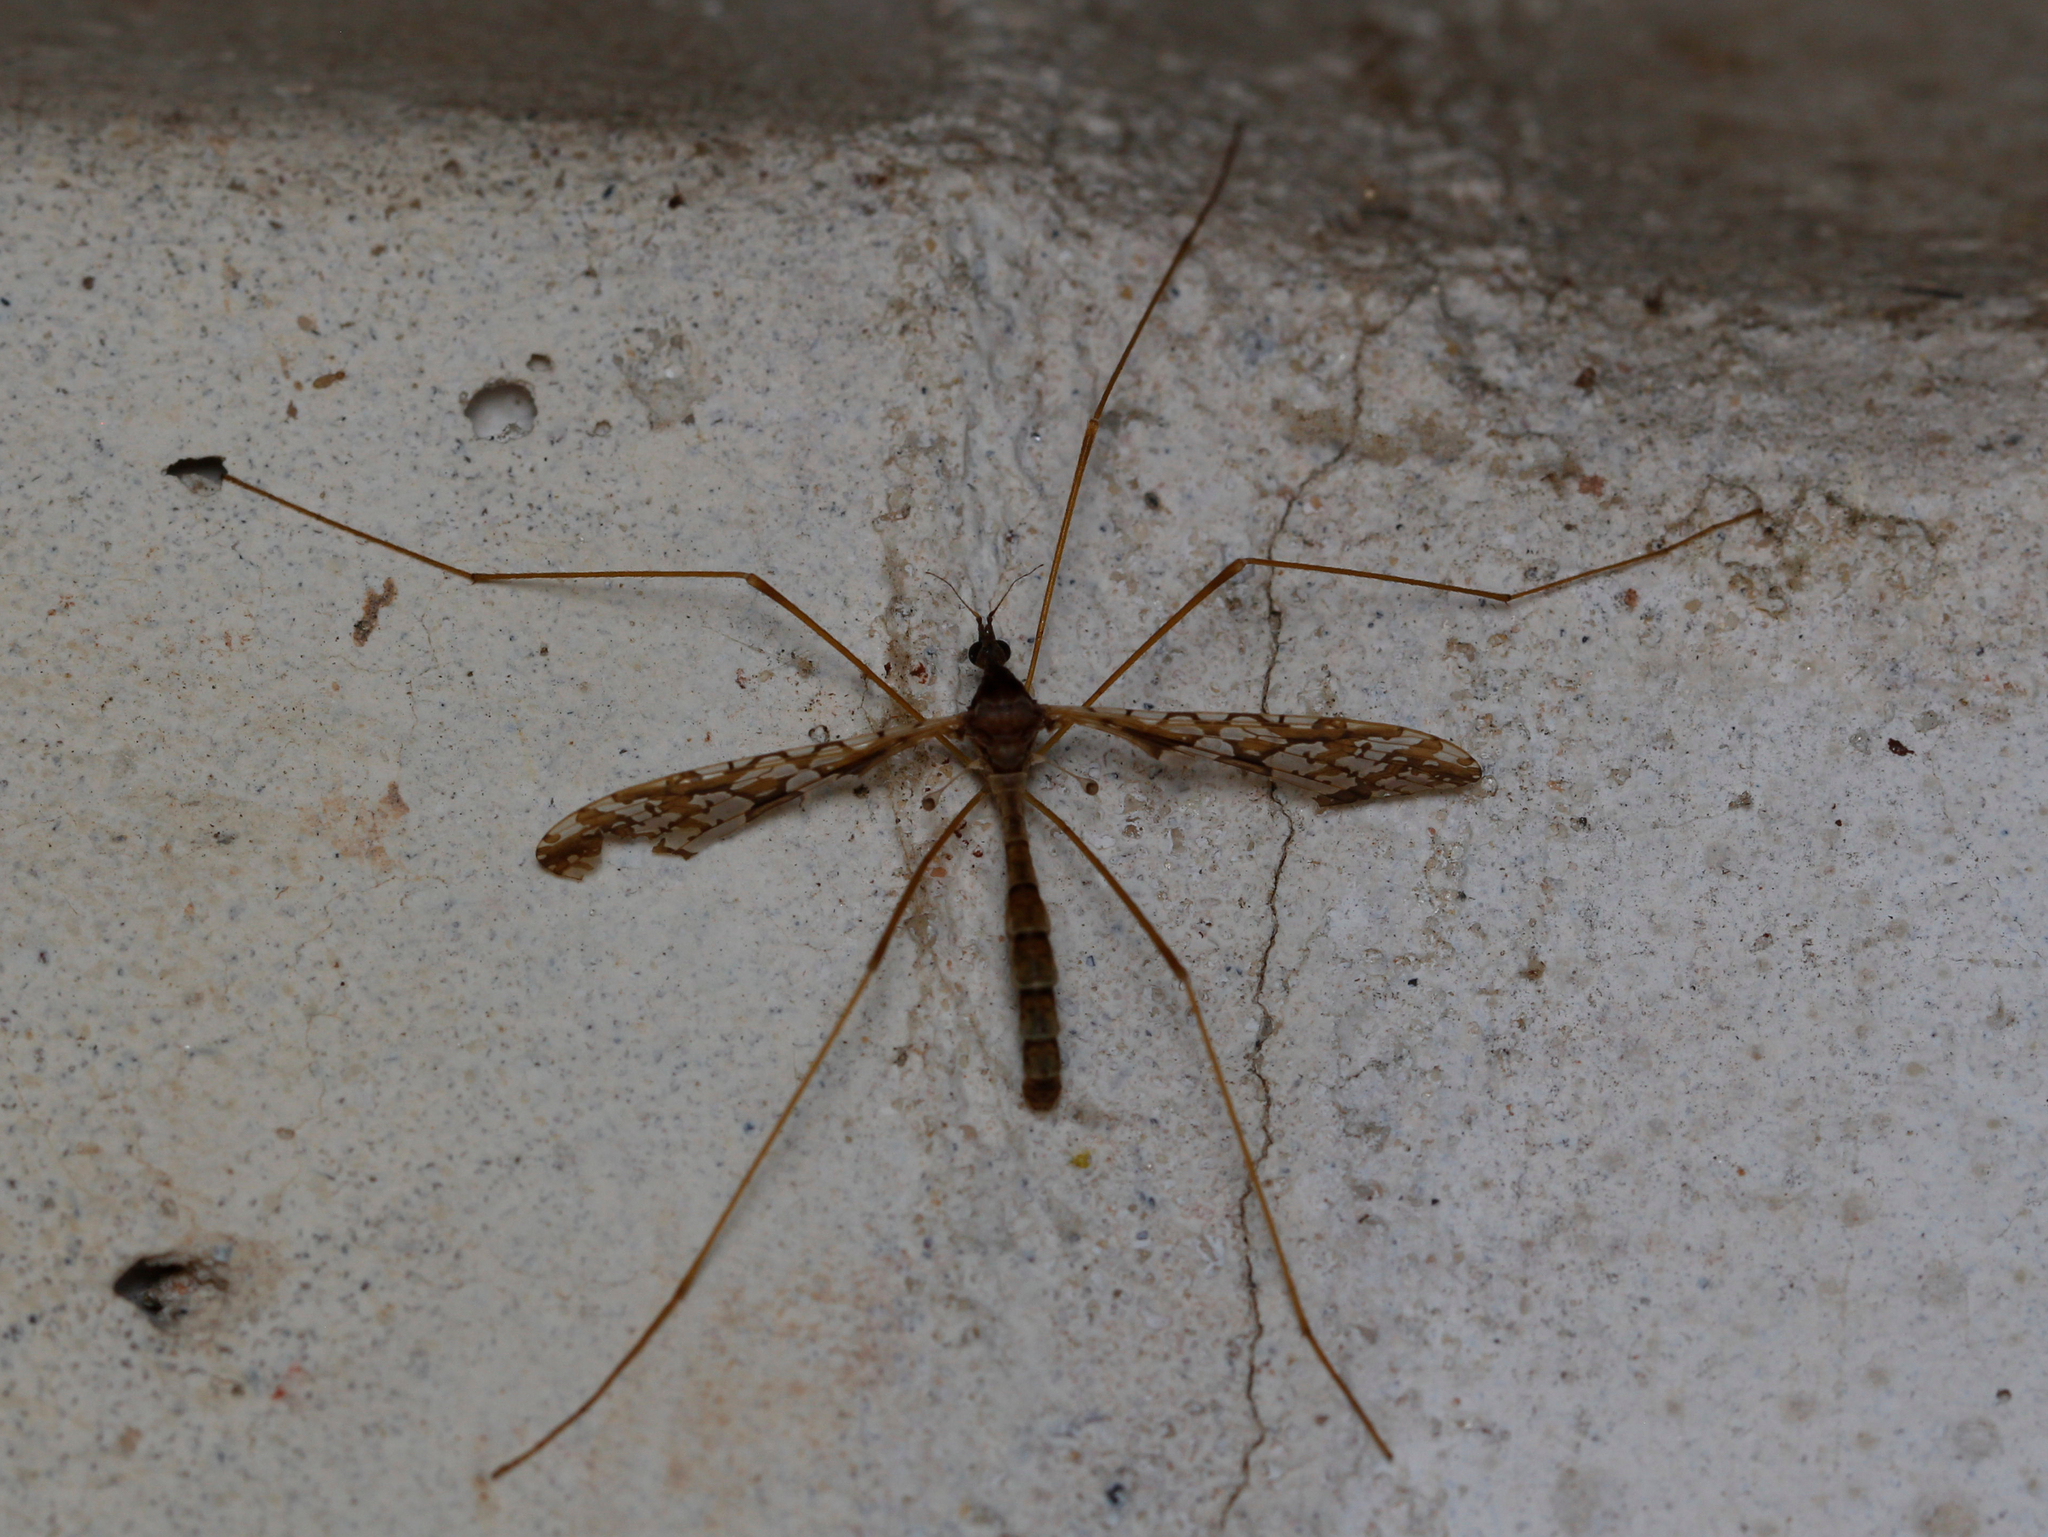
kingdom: Animalia
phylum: Arthropoda
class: Insecta
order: Diptera
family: Limoniidae
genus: Epiphragma
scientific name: Epiphragma solatrix
